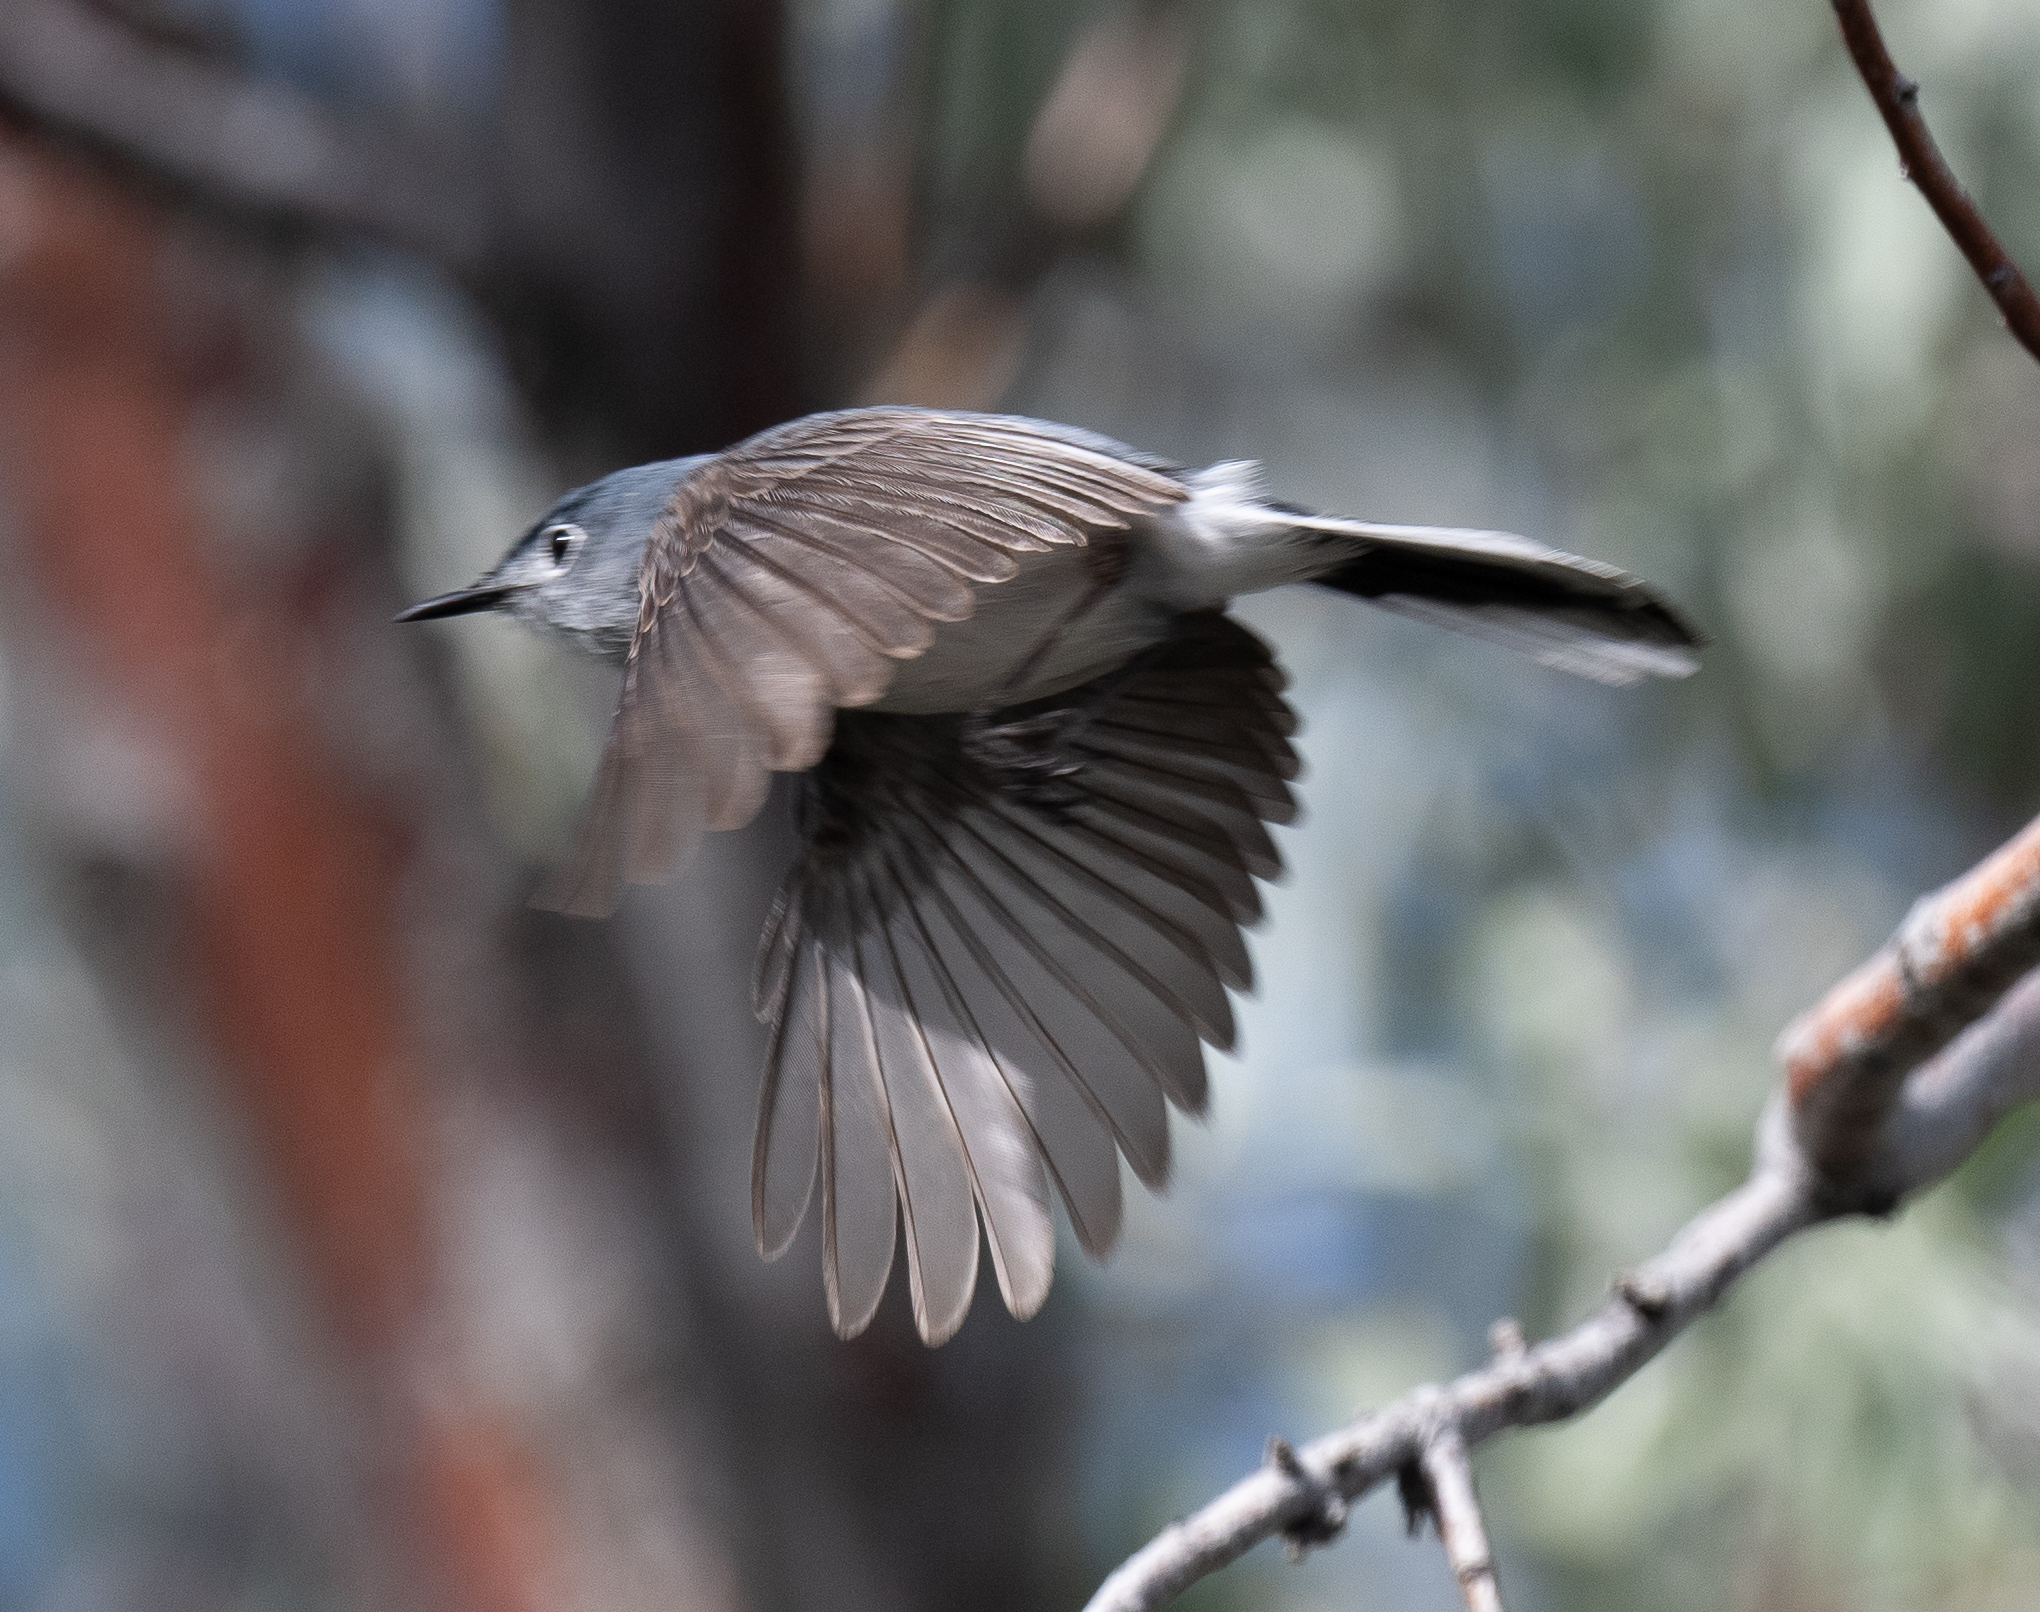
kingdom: Animalia
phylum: Chordata
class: Aves
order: Passeriformes
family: Polioptilidae
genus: Polioptila
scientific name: Polioptila caerulea
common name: Blue-gray gnatcatcher
